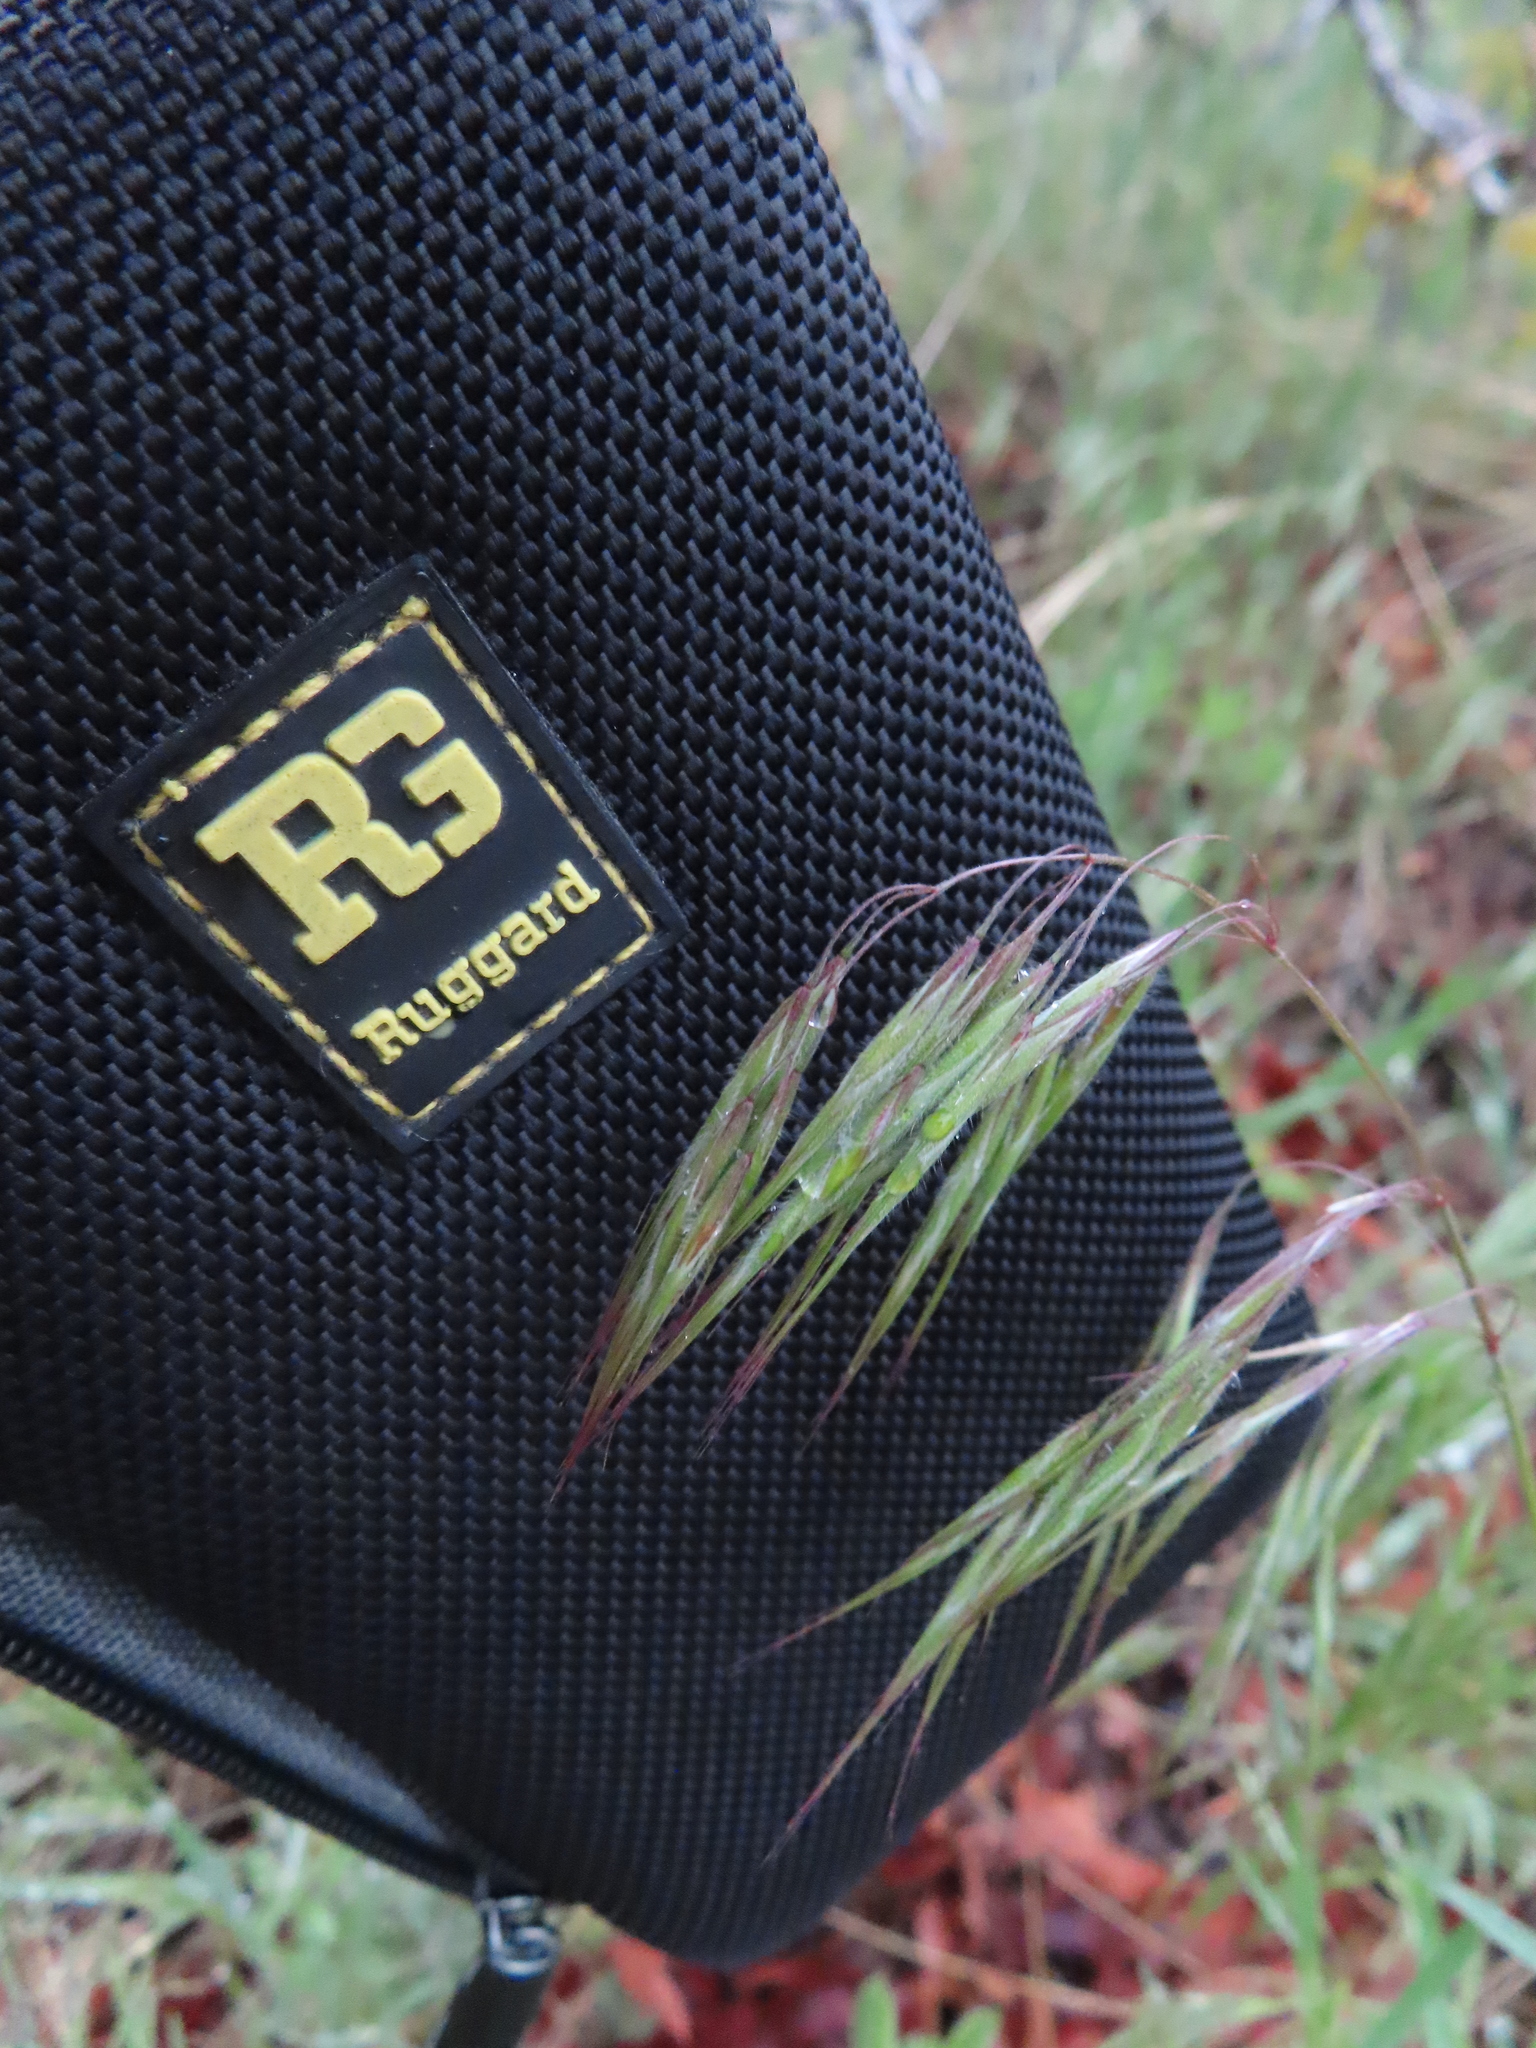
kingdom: Plantae
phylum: Tracheophyta
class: Liliopsida
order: Poales
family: Poaceae
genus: Bromus
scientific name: Bromus tectorum
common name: Cheatgrass
